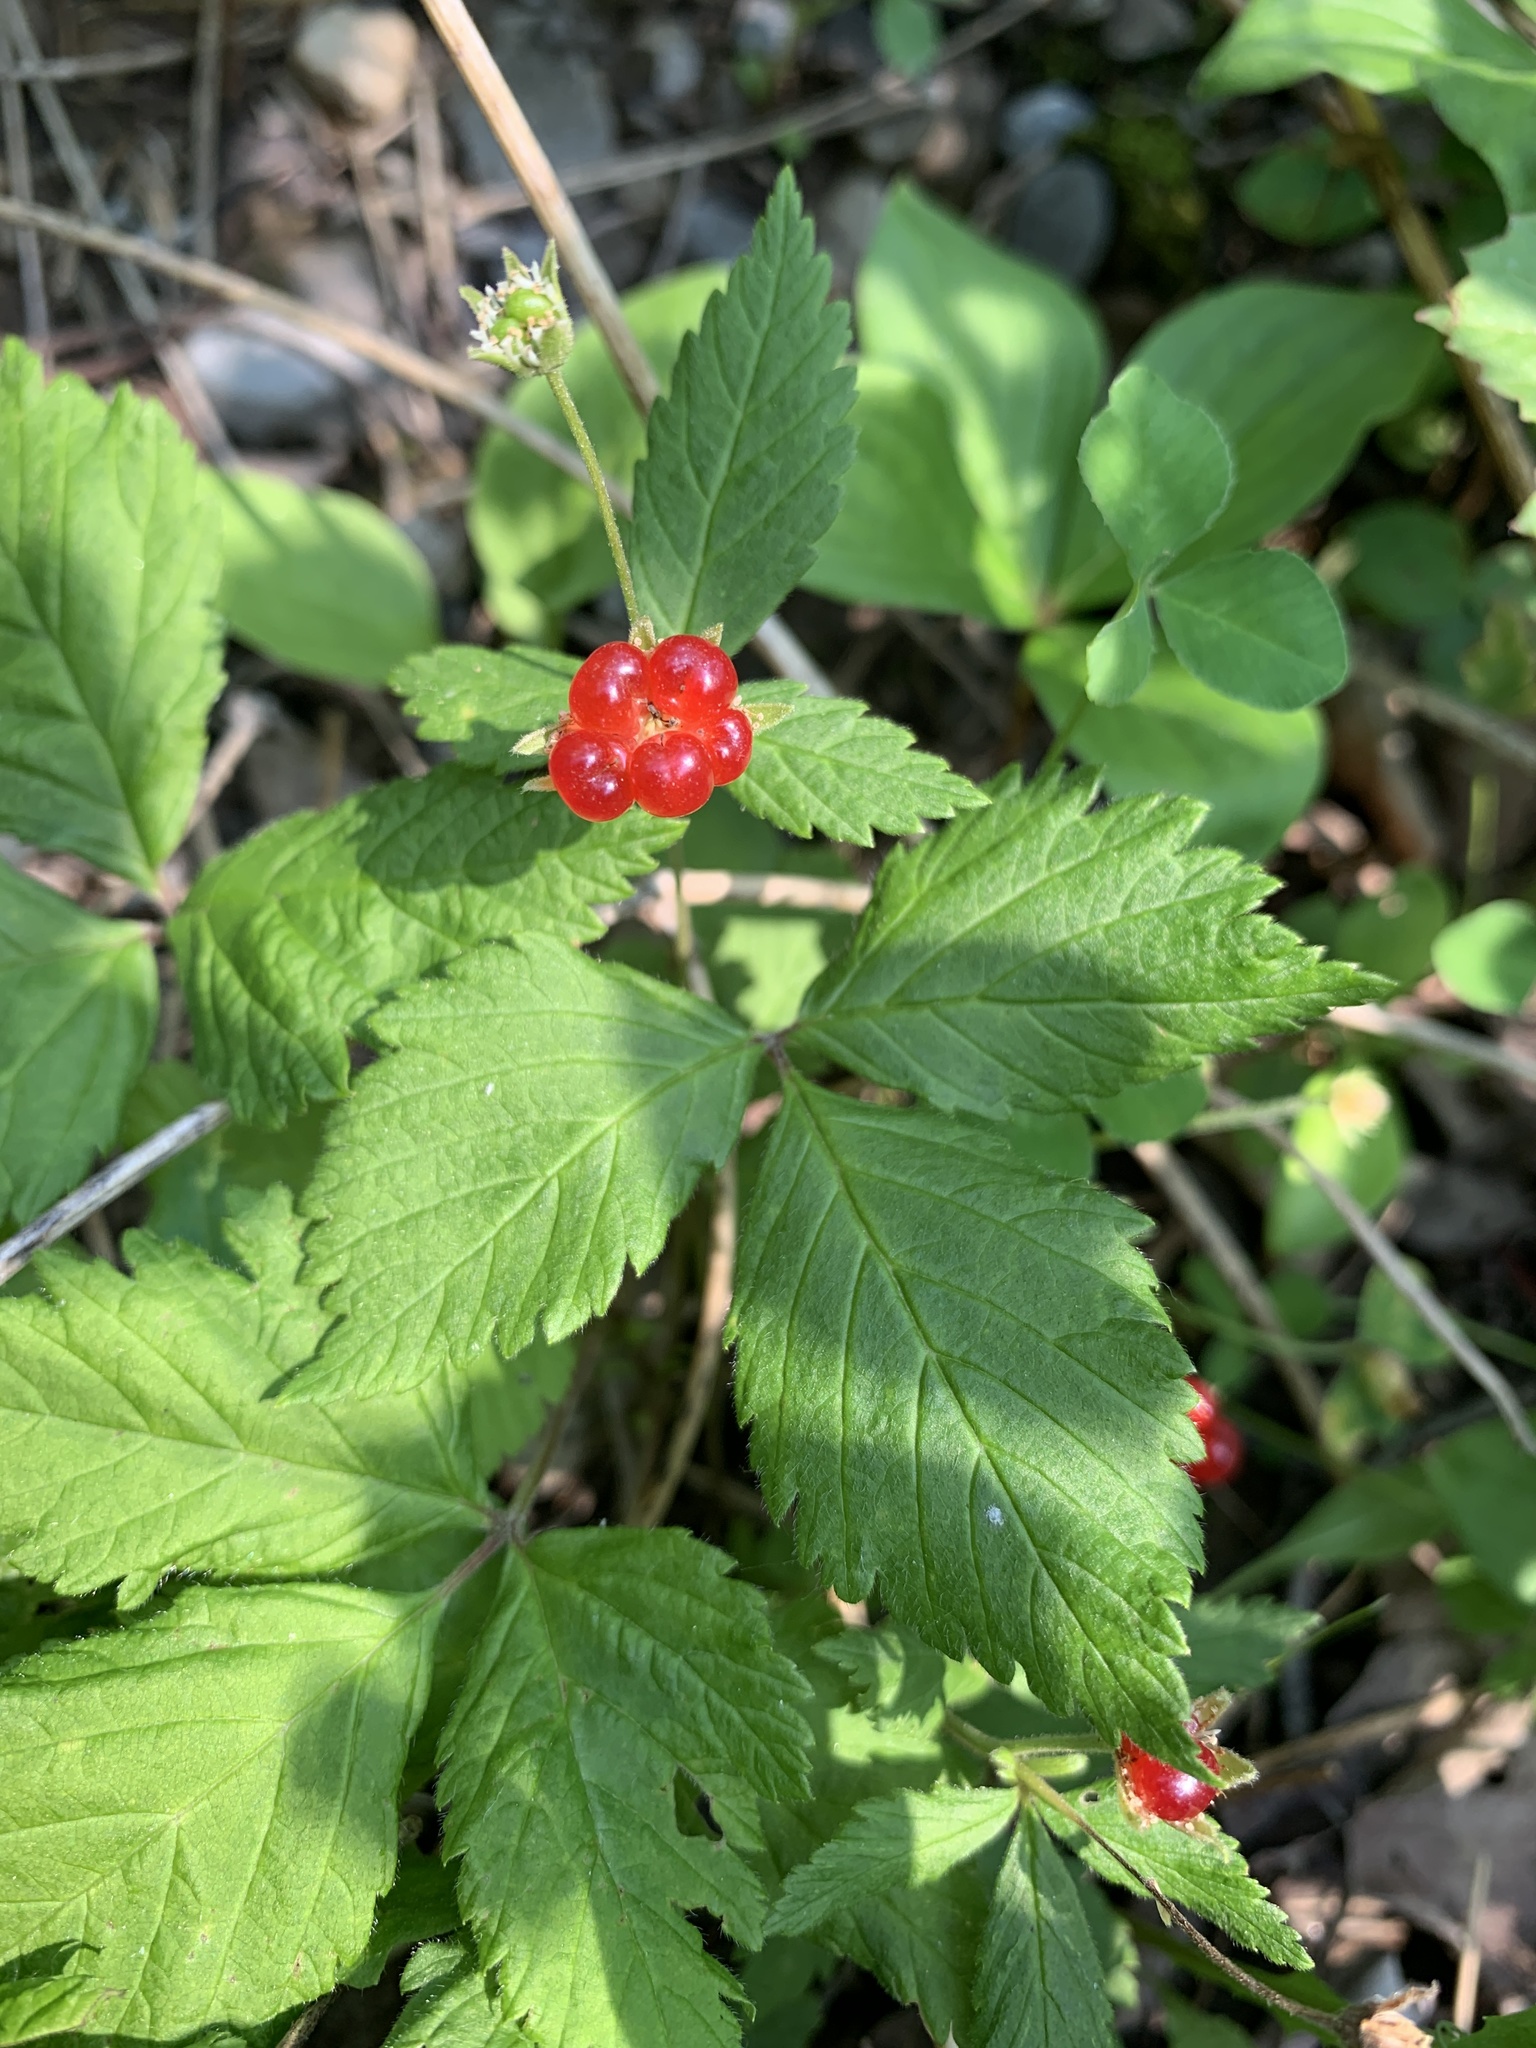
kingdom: Plantae
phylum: Tracheophyta
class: Magnoliopsida
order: Rosales
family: Rosaceae
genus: Rubus
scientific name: Rubus pubescens
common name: Dwarf raspberry
